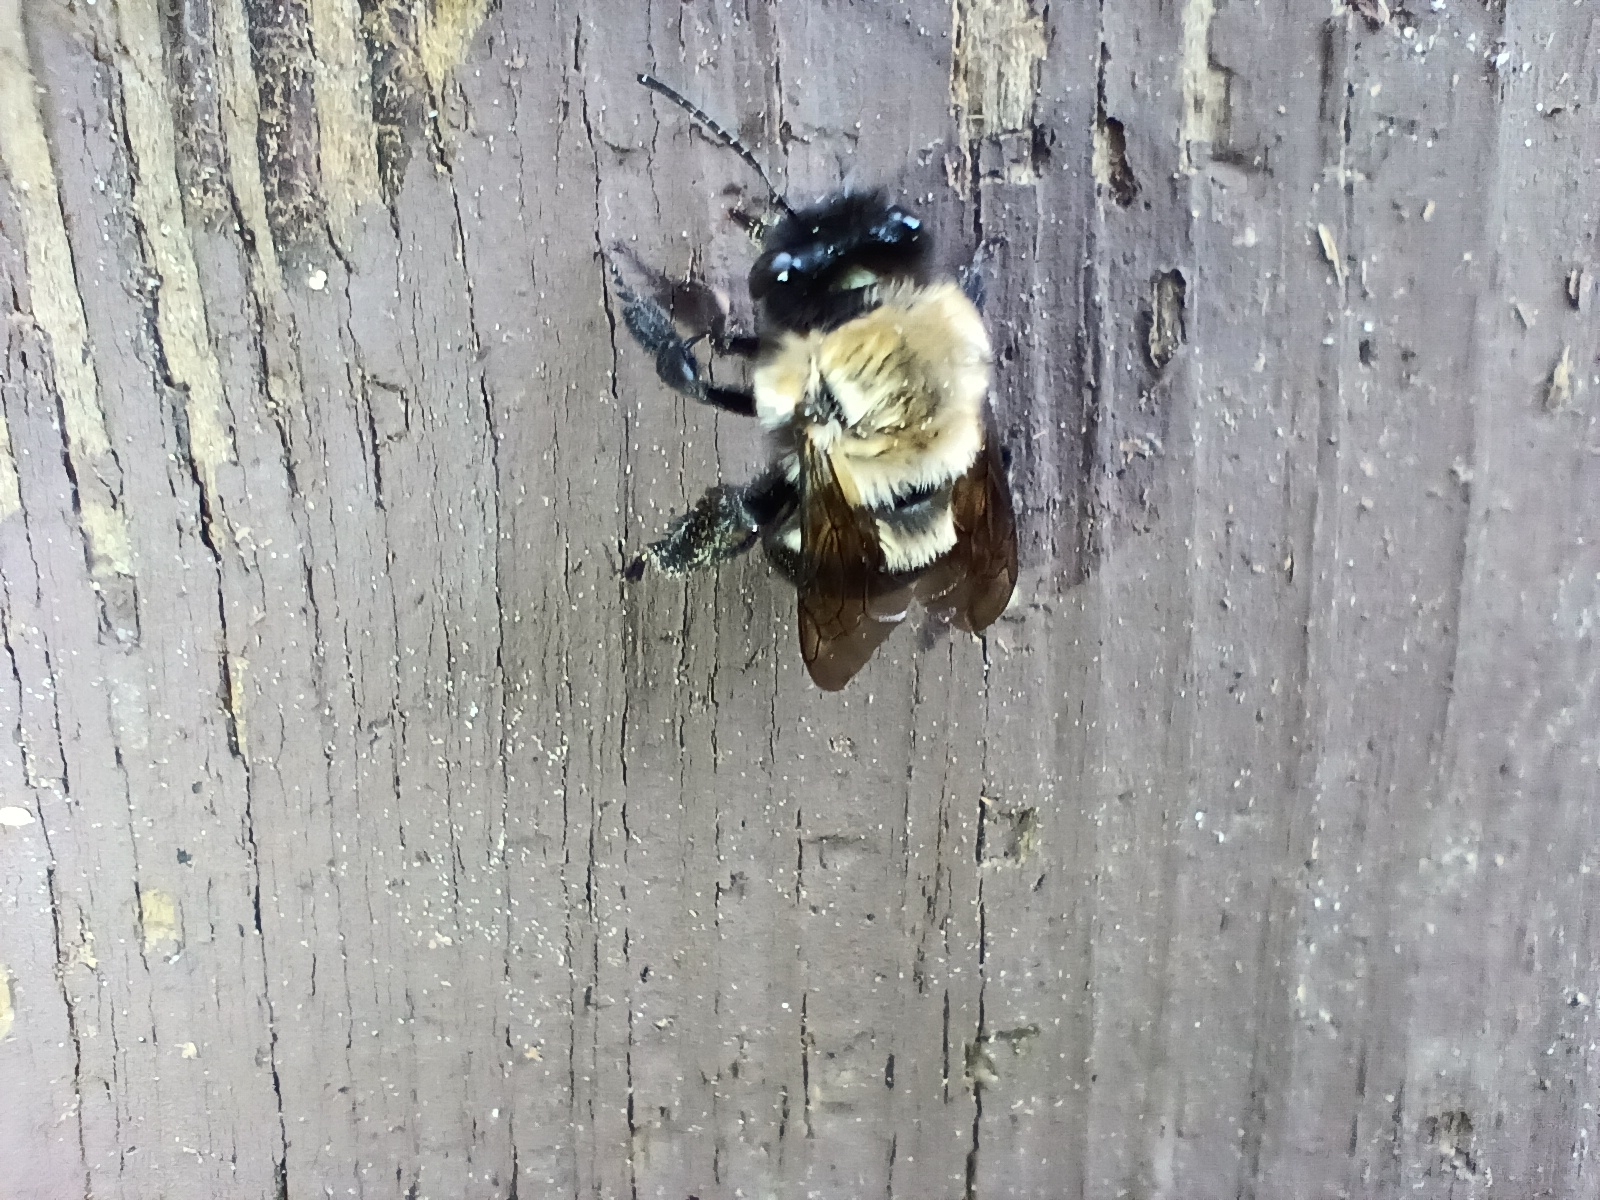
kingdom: Animalia
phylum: Arthropoda
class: Insecta
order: Hymenoptera
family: Apidae
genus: Habropoda
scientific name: Habropoda laboriosa
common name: Southeastern blueberry bee
